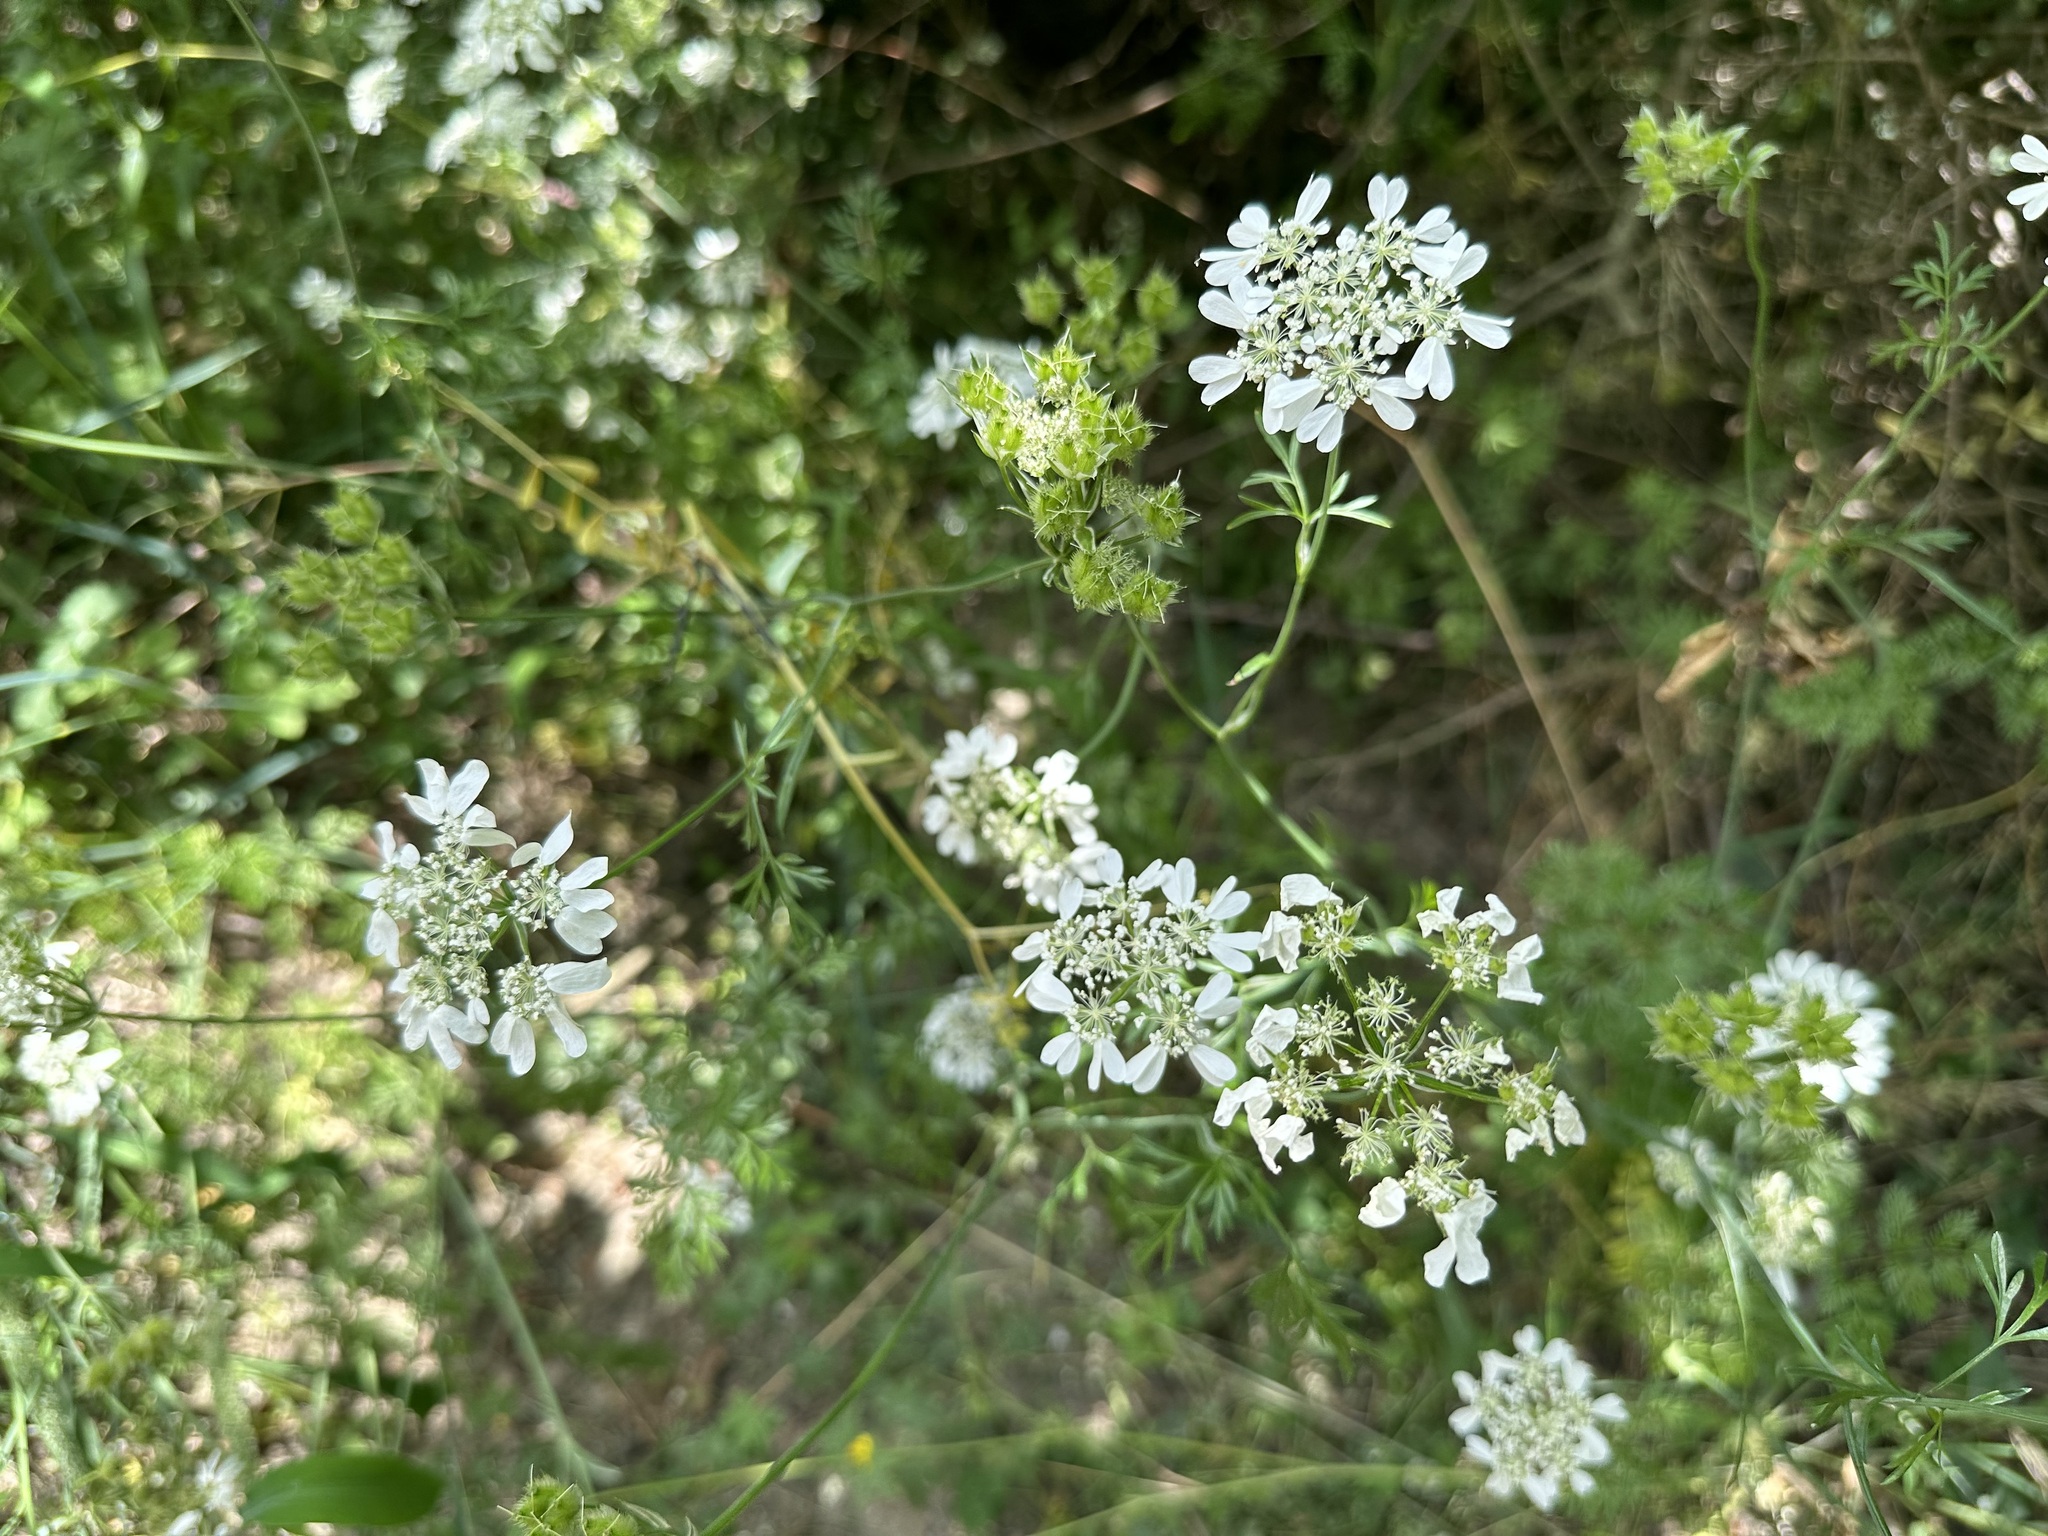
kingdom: Plantae
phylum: Tracheophyta
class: Magnoliopsida
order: Apiales
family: Apiaceae
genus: Orlaya
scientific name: Orlaya grandiflora
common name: White lace flower
